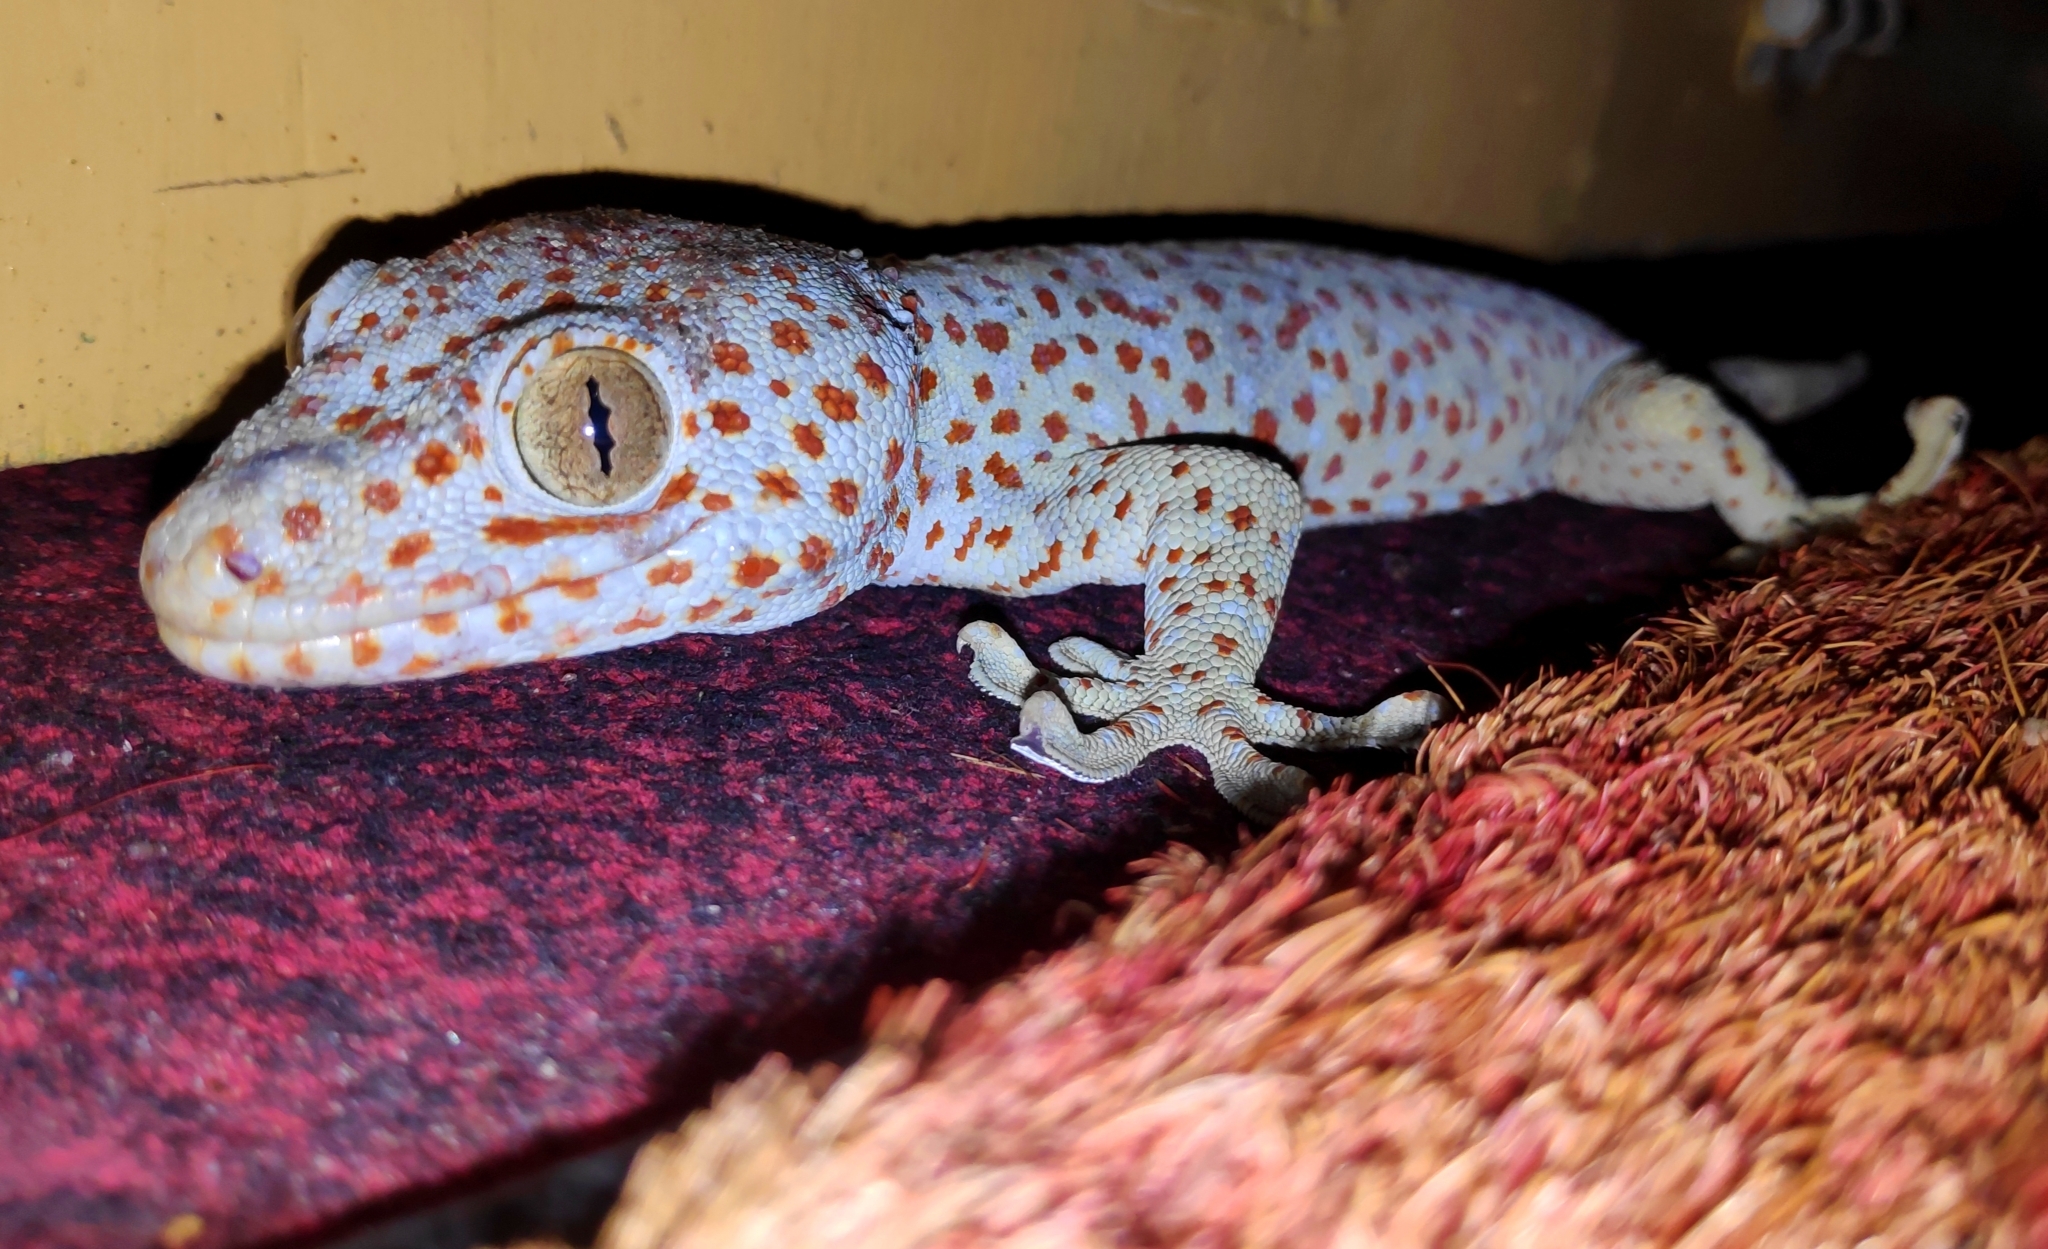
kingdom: Animalia
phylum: Chordata
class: Squamata
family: Gekkonidae
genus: Gekko
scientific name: Gekko gecko
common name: Tokay gecko
